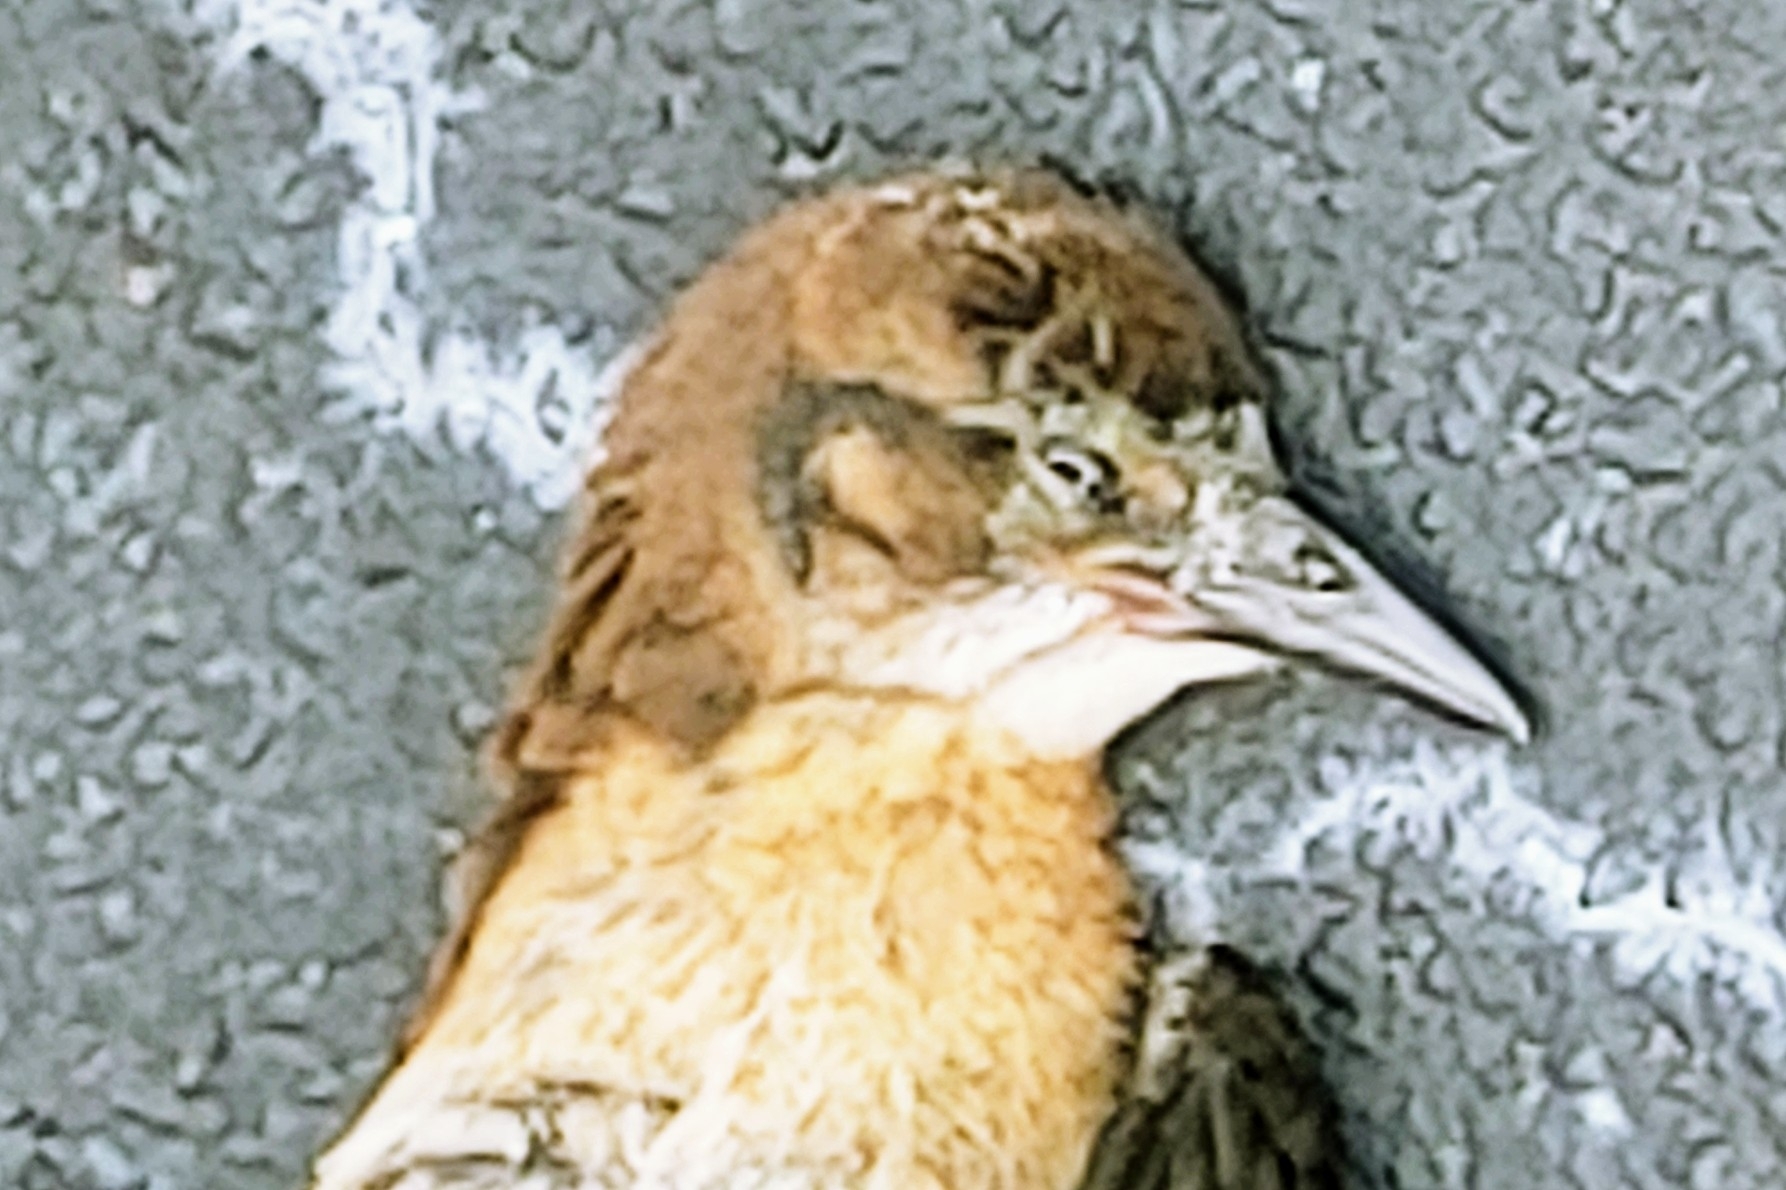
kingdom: Animalia
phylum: Chordata
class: Aves
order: Passeriformes
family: Icteridae
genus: Quiscalus
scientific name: Quiscalus major
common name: Boat-tailed grackle
